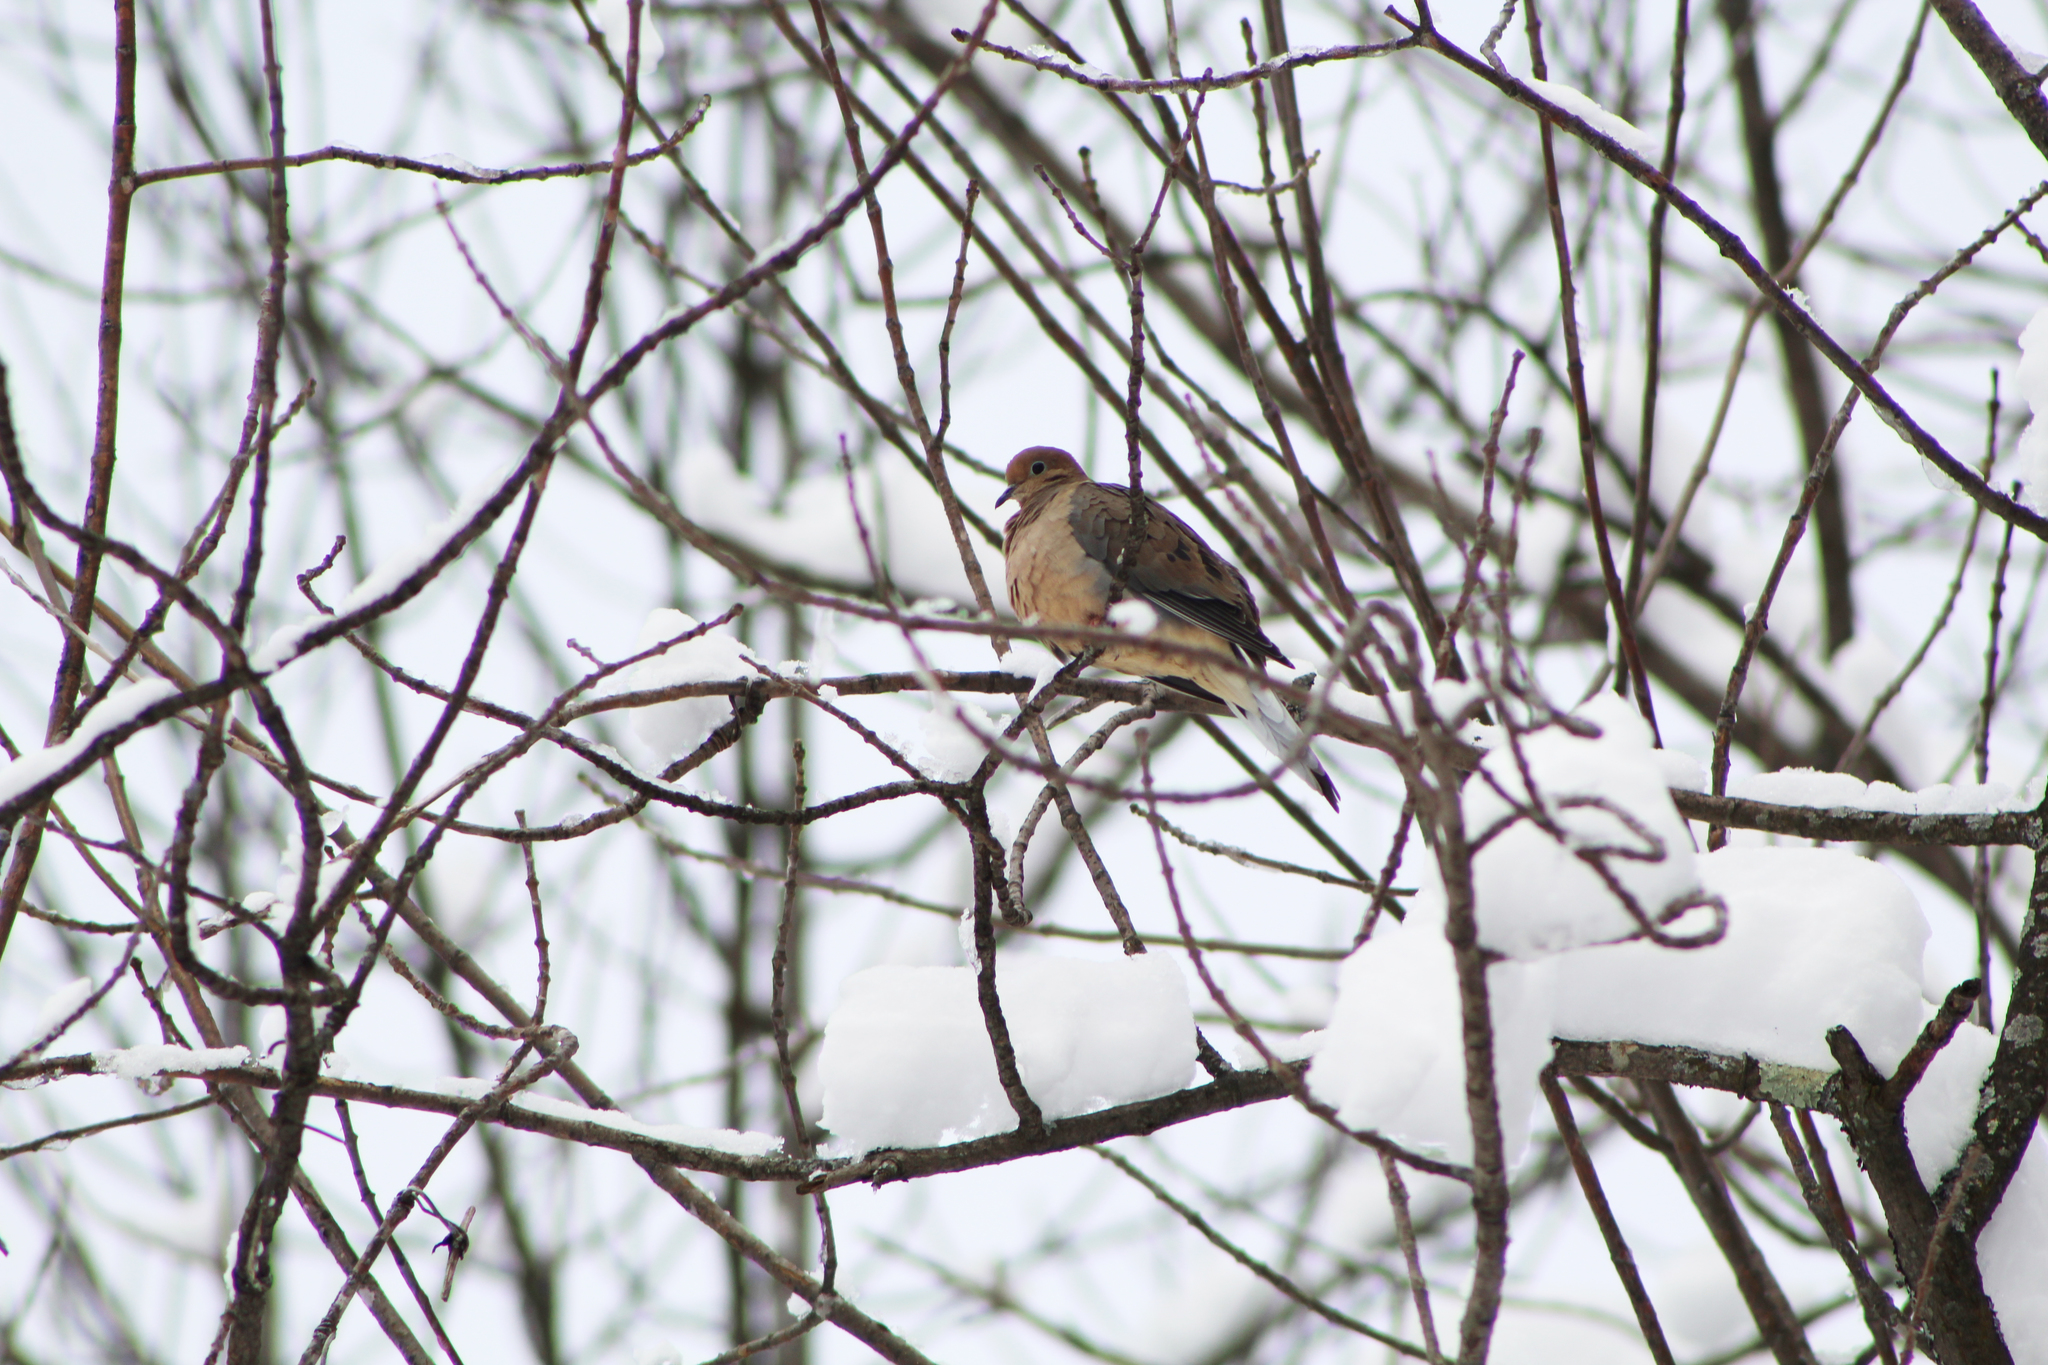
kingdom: Animalia
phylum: Chordata
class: Aves
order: Columbiformes
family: Columbidae
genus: Zenaida
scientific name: Zenaida macroura
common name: Mourning dove
